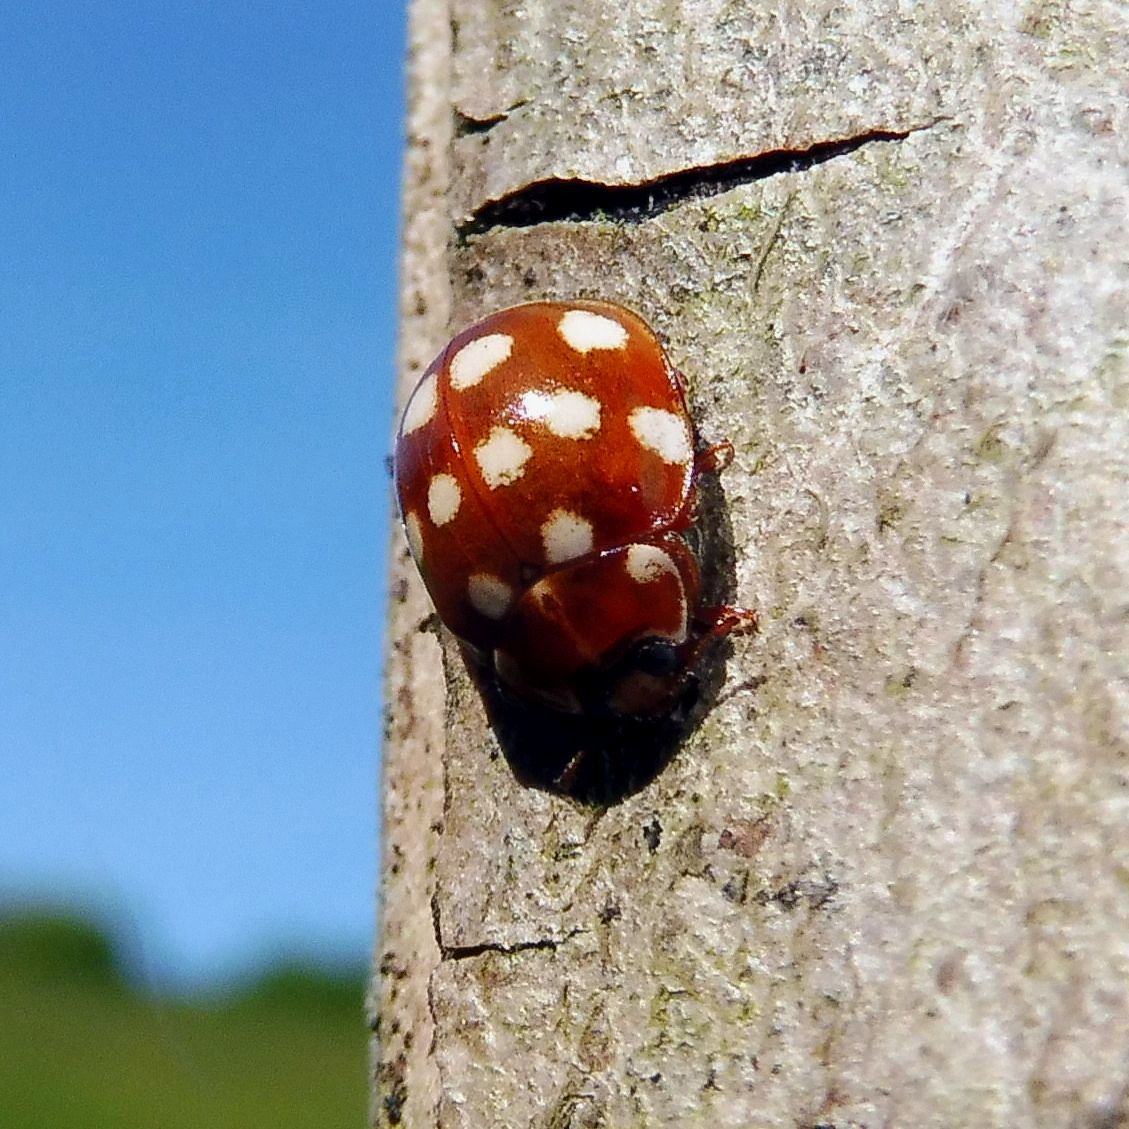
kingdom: Animalia
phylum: Arthropoda
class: Insecta
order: Coleoptera
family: Coccinellidae
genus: Calvia
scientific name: Calvia quatuordecimguttata
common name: Cream-spot ladybird
